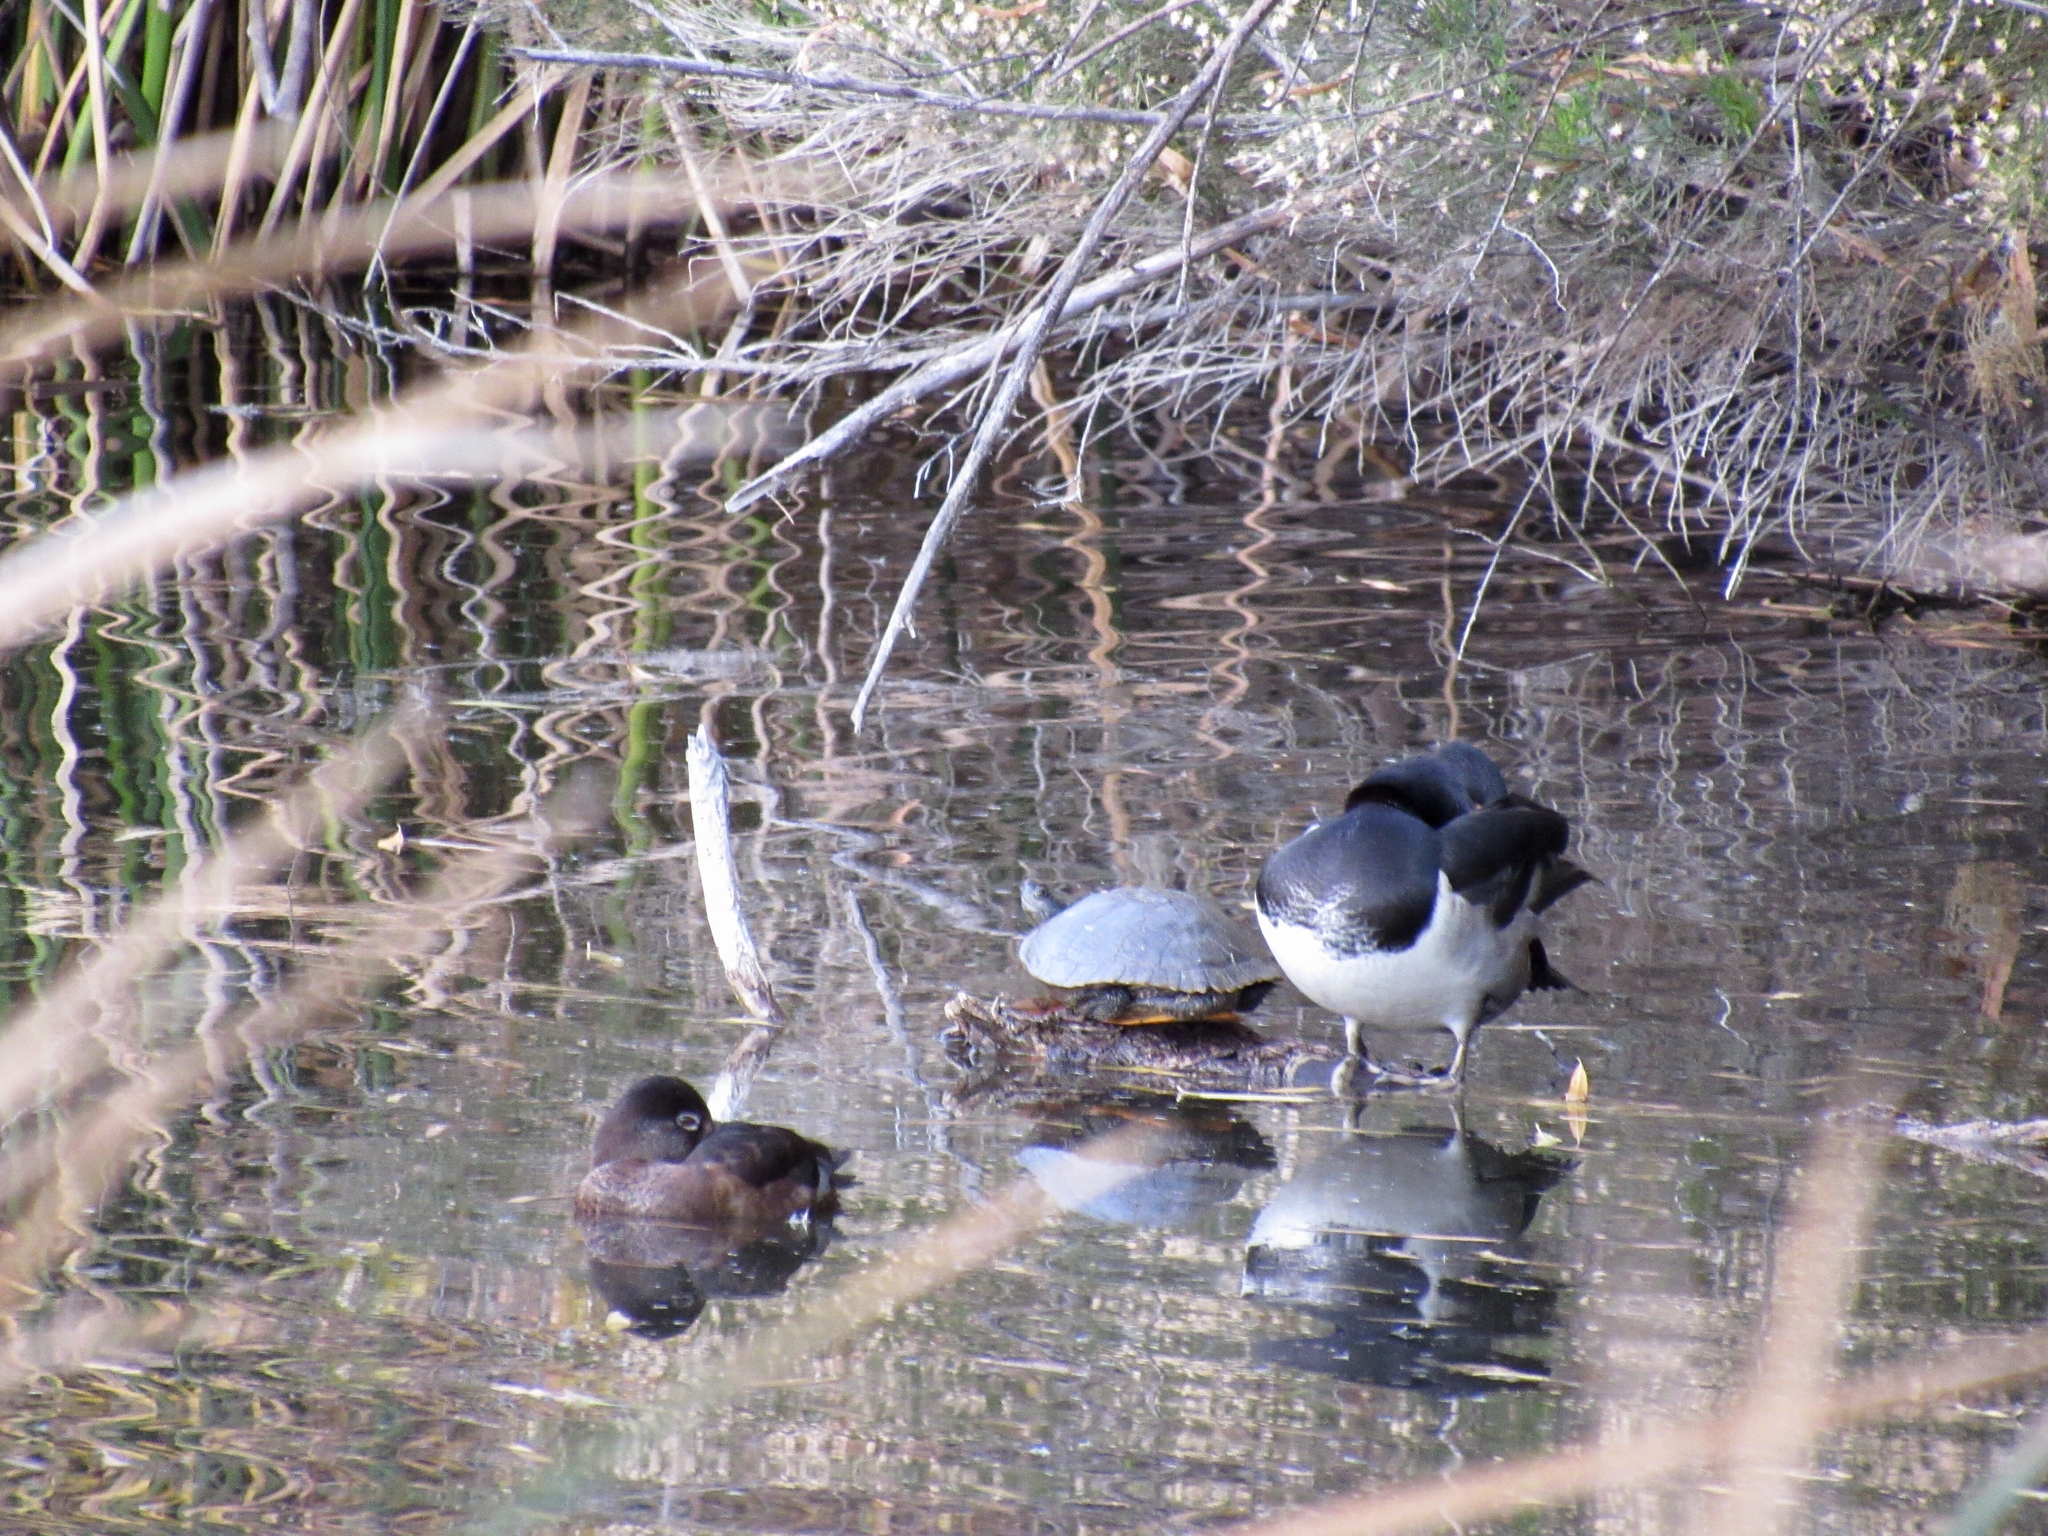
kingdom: Animalia
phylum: Chordata
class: Aves
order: Anseriformes
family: Anatidae
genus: Aythya
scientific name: Aythya collaris
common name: Ring-necked duck
